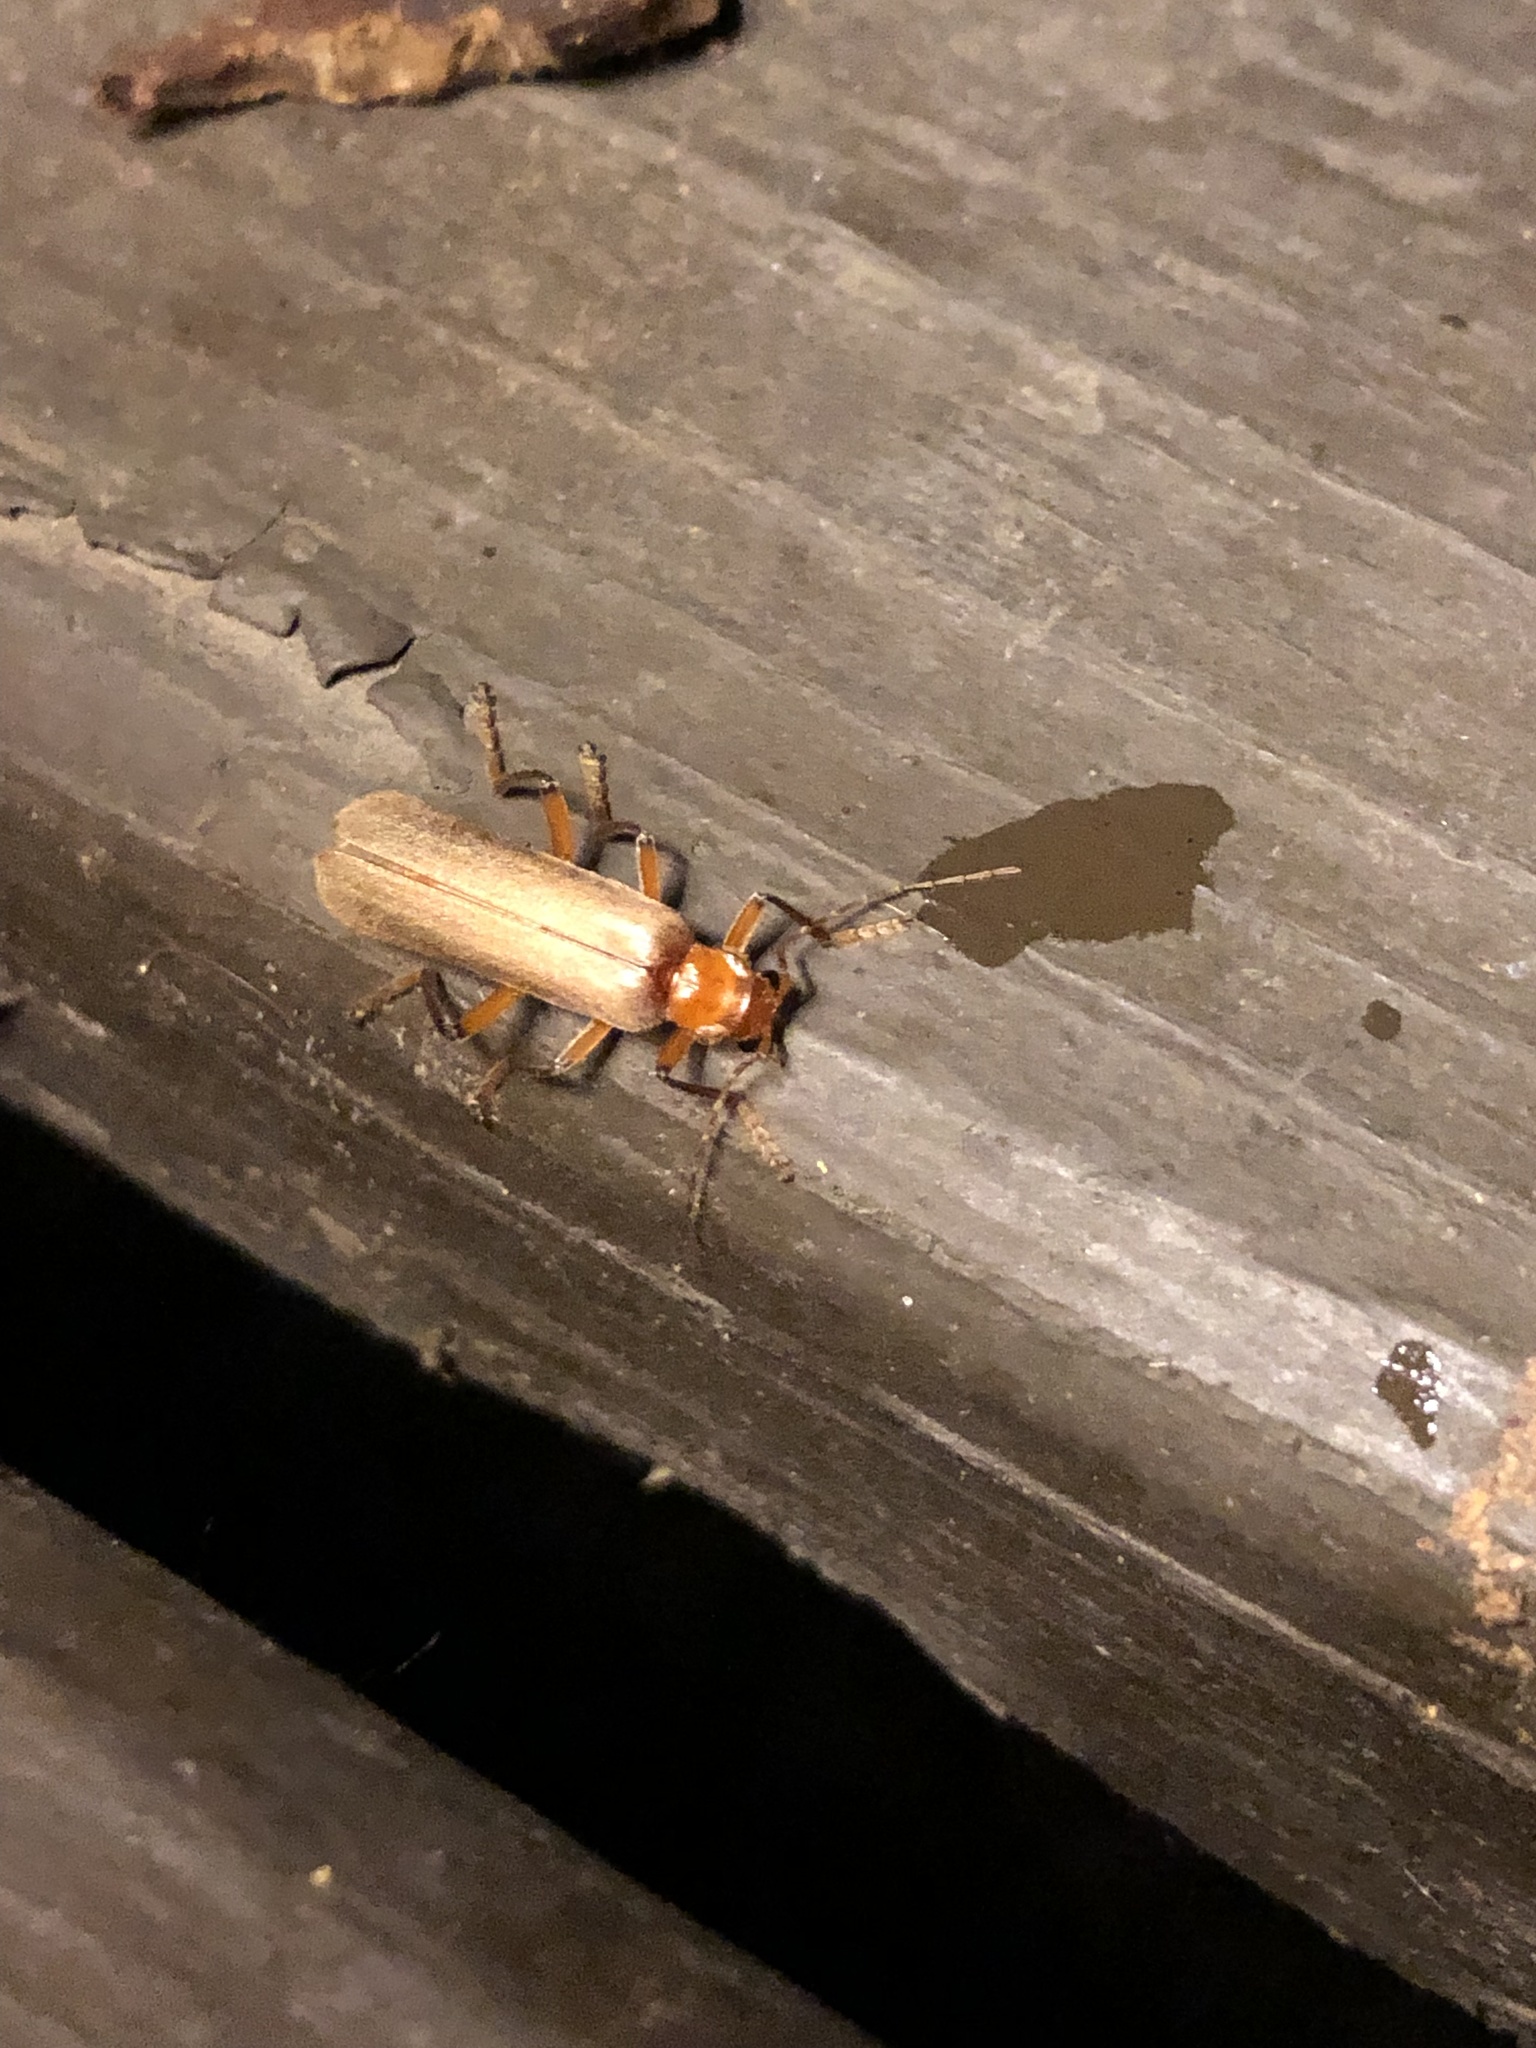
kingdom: Animalia
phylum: Arthropoda
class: Insecta
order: Coleoptera
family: Cantharidae
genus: Pacificanthia
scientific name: Pacificanthia consors
